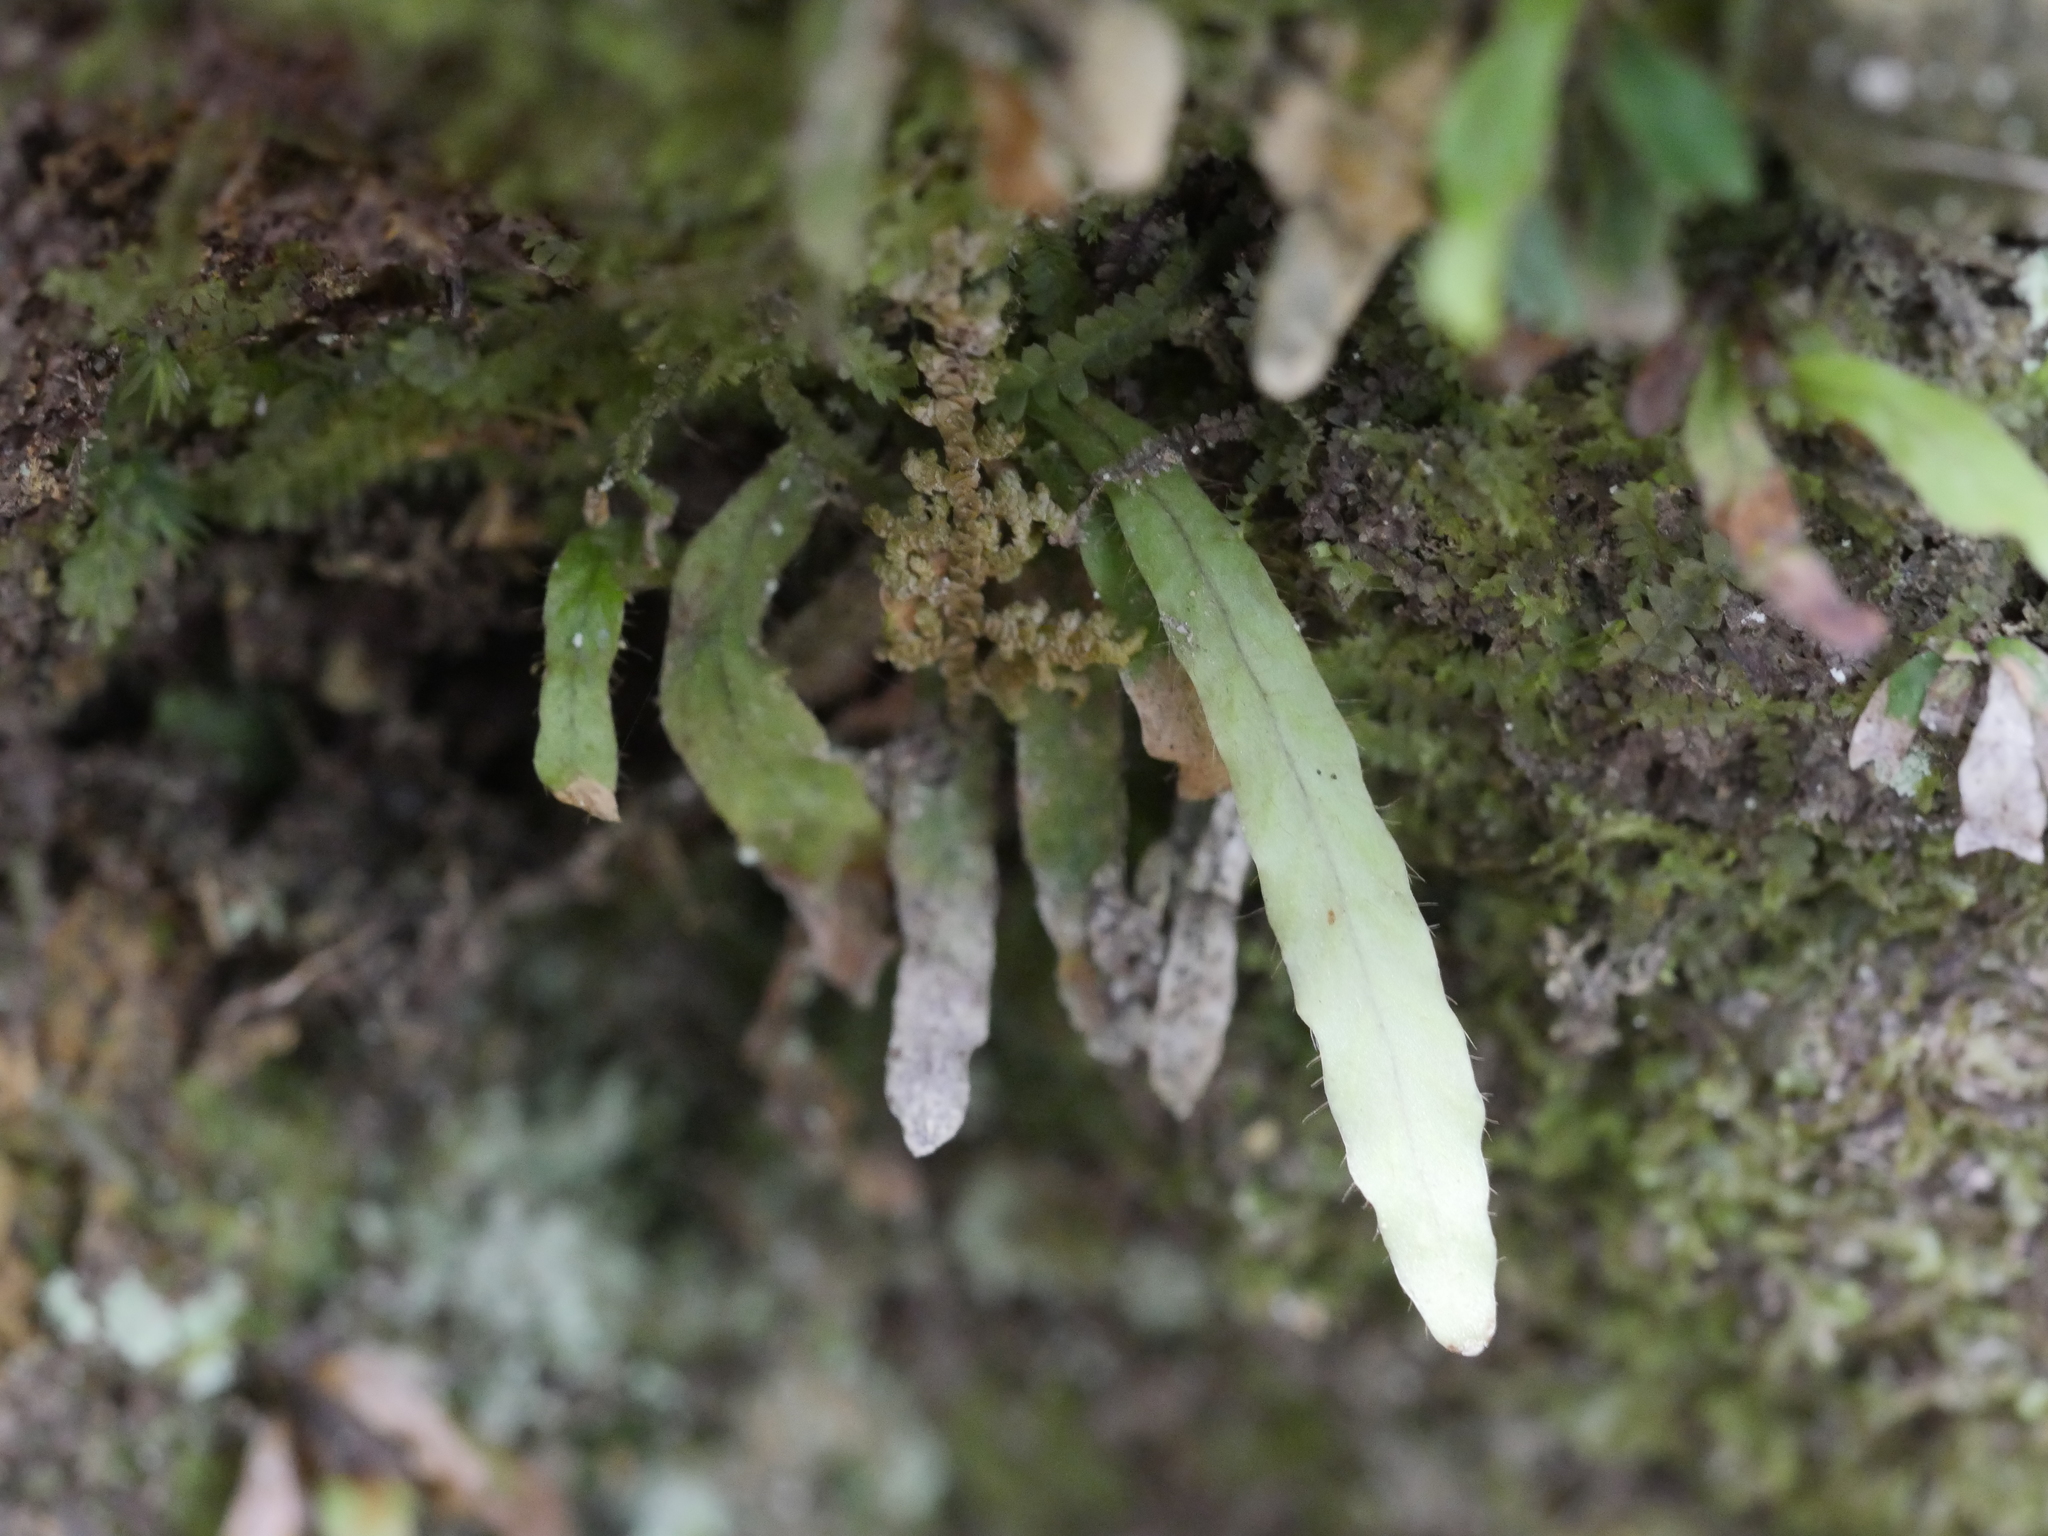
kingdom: Plantae
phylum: Tracheophyta
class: Polypodiopsida
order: Polypodiales
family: Polypodiaceae
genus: Notogrammitis
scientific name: Notogrammitis ciliata
